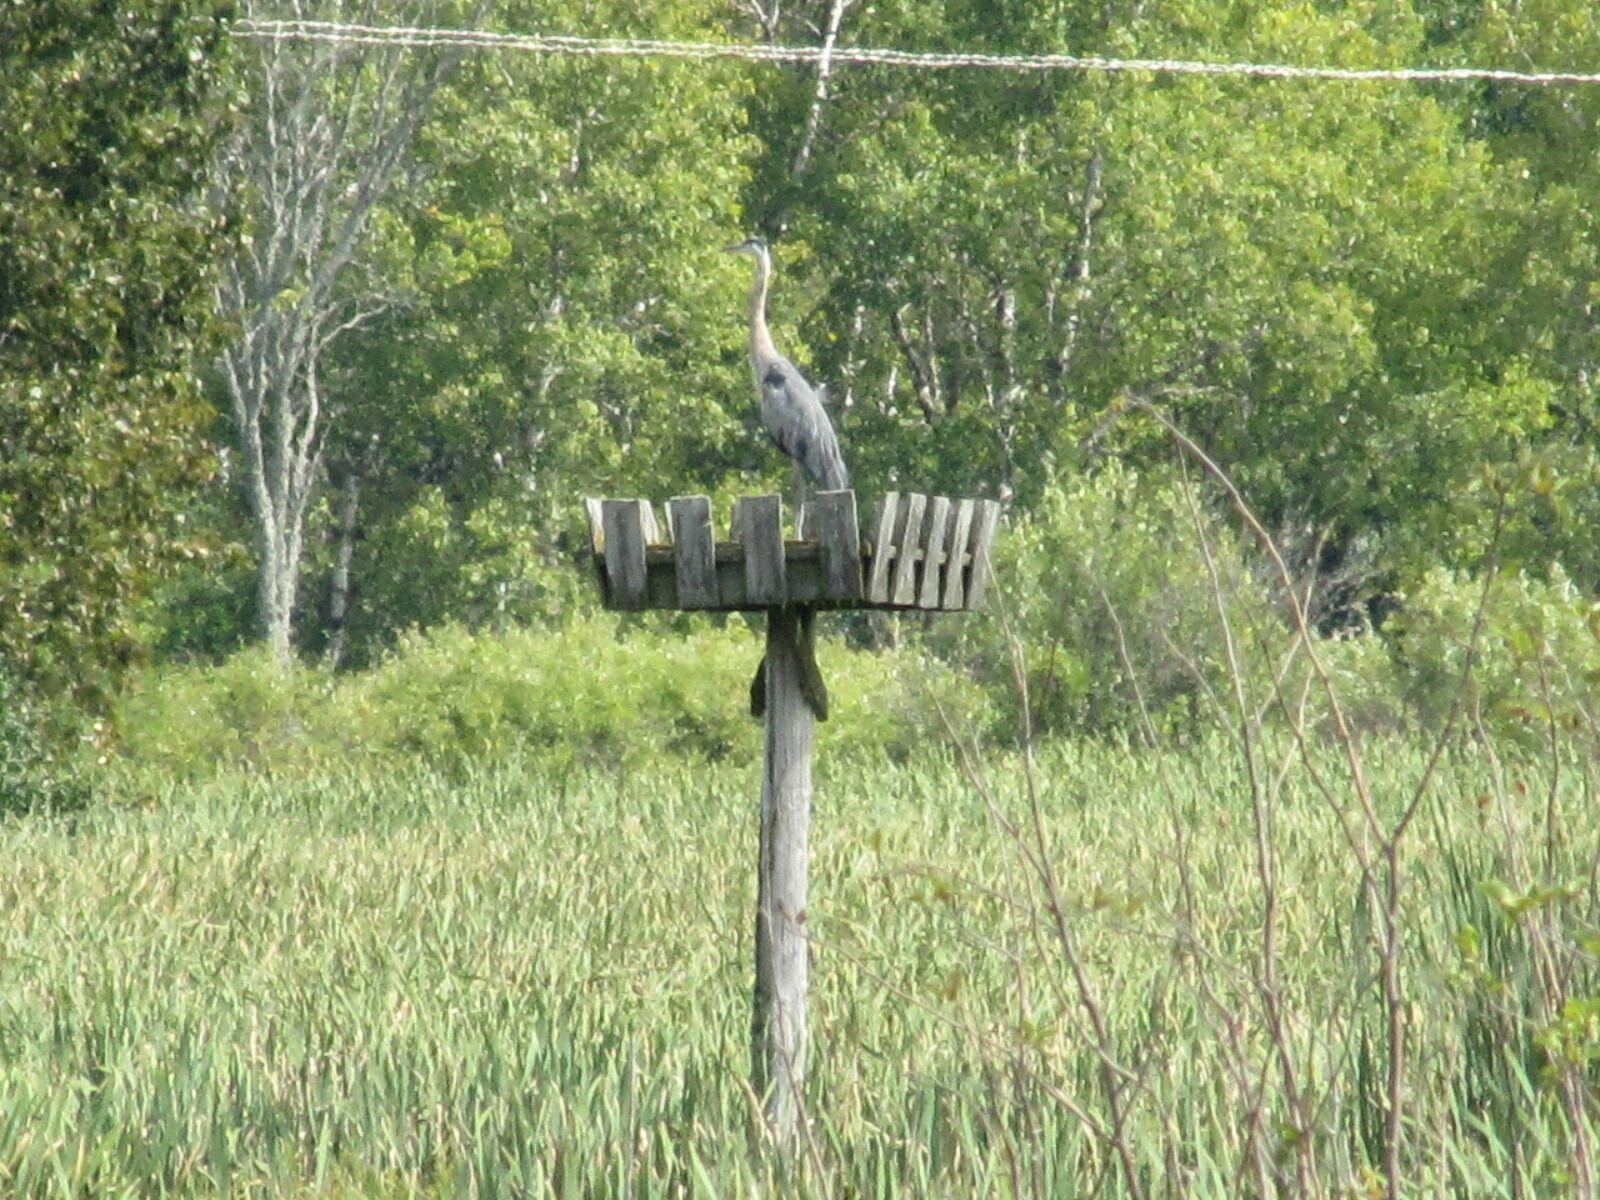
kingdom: Animalia
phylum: Chordata
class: Aves
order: Pelecaniformes
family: Ardeidae
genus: Ardea
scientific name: Ardea herodias
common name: Great blue heron
